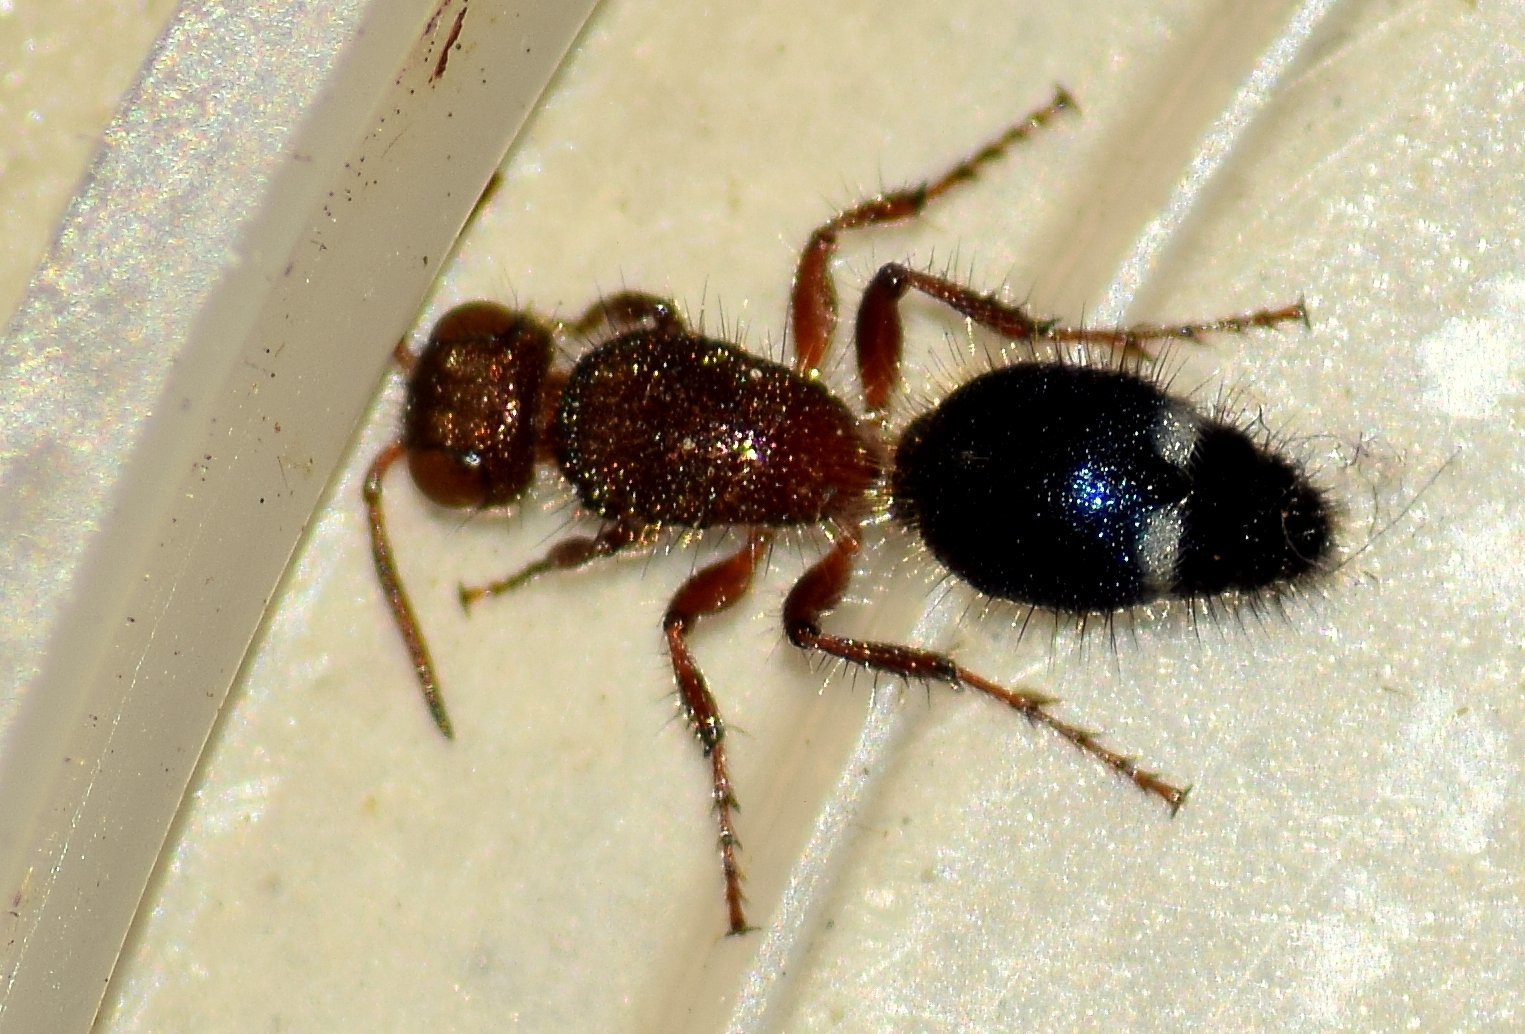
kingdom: Animalia
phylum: Arthropoda
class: Insecta
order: Hymenoptera
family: Mutillidae
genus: Ephucilla
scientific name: Ephucilla
